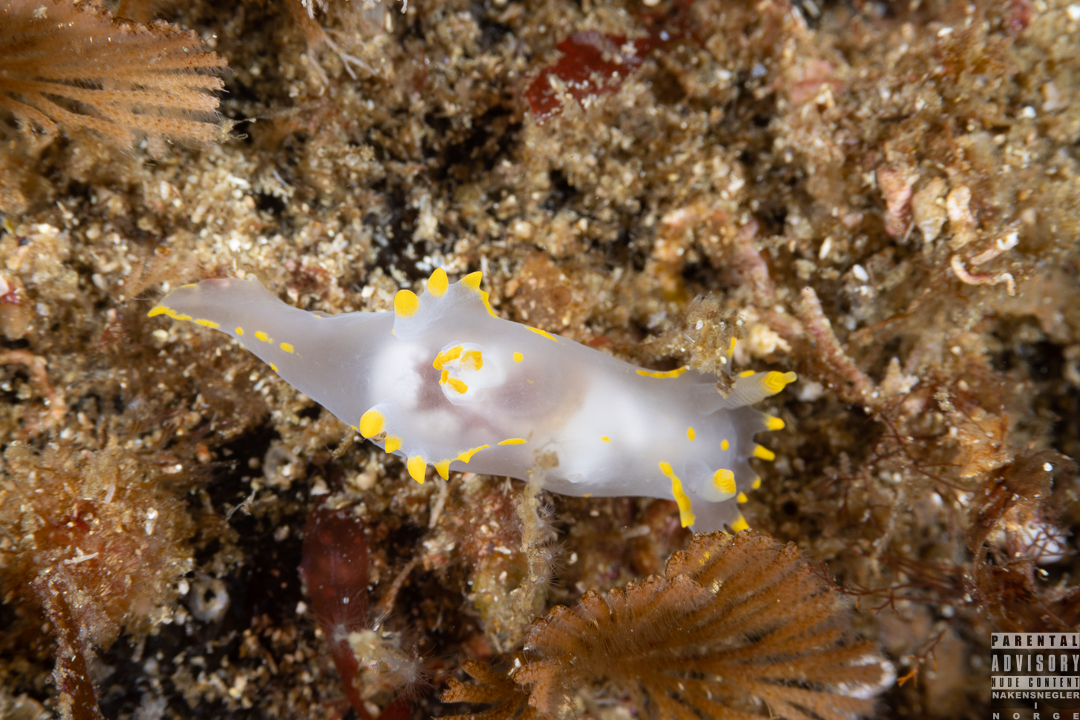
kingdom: Animalia
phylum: Mollusca
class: Gastropoda
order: Nudibranchia
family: Polyceridae
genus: Polycera
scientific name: Polycera faeroensis
